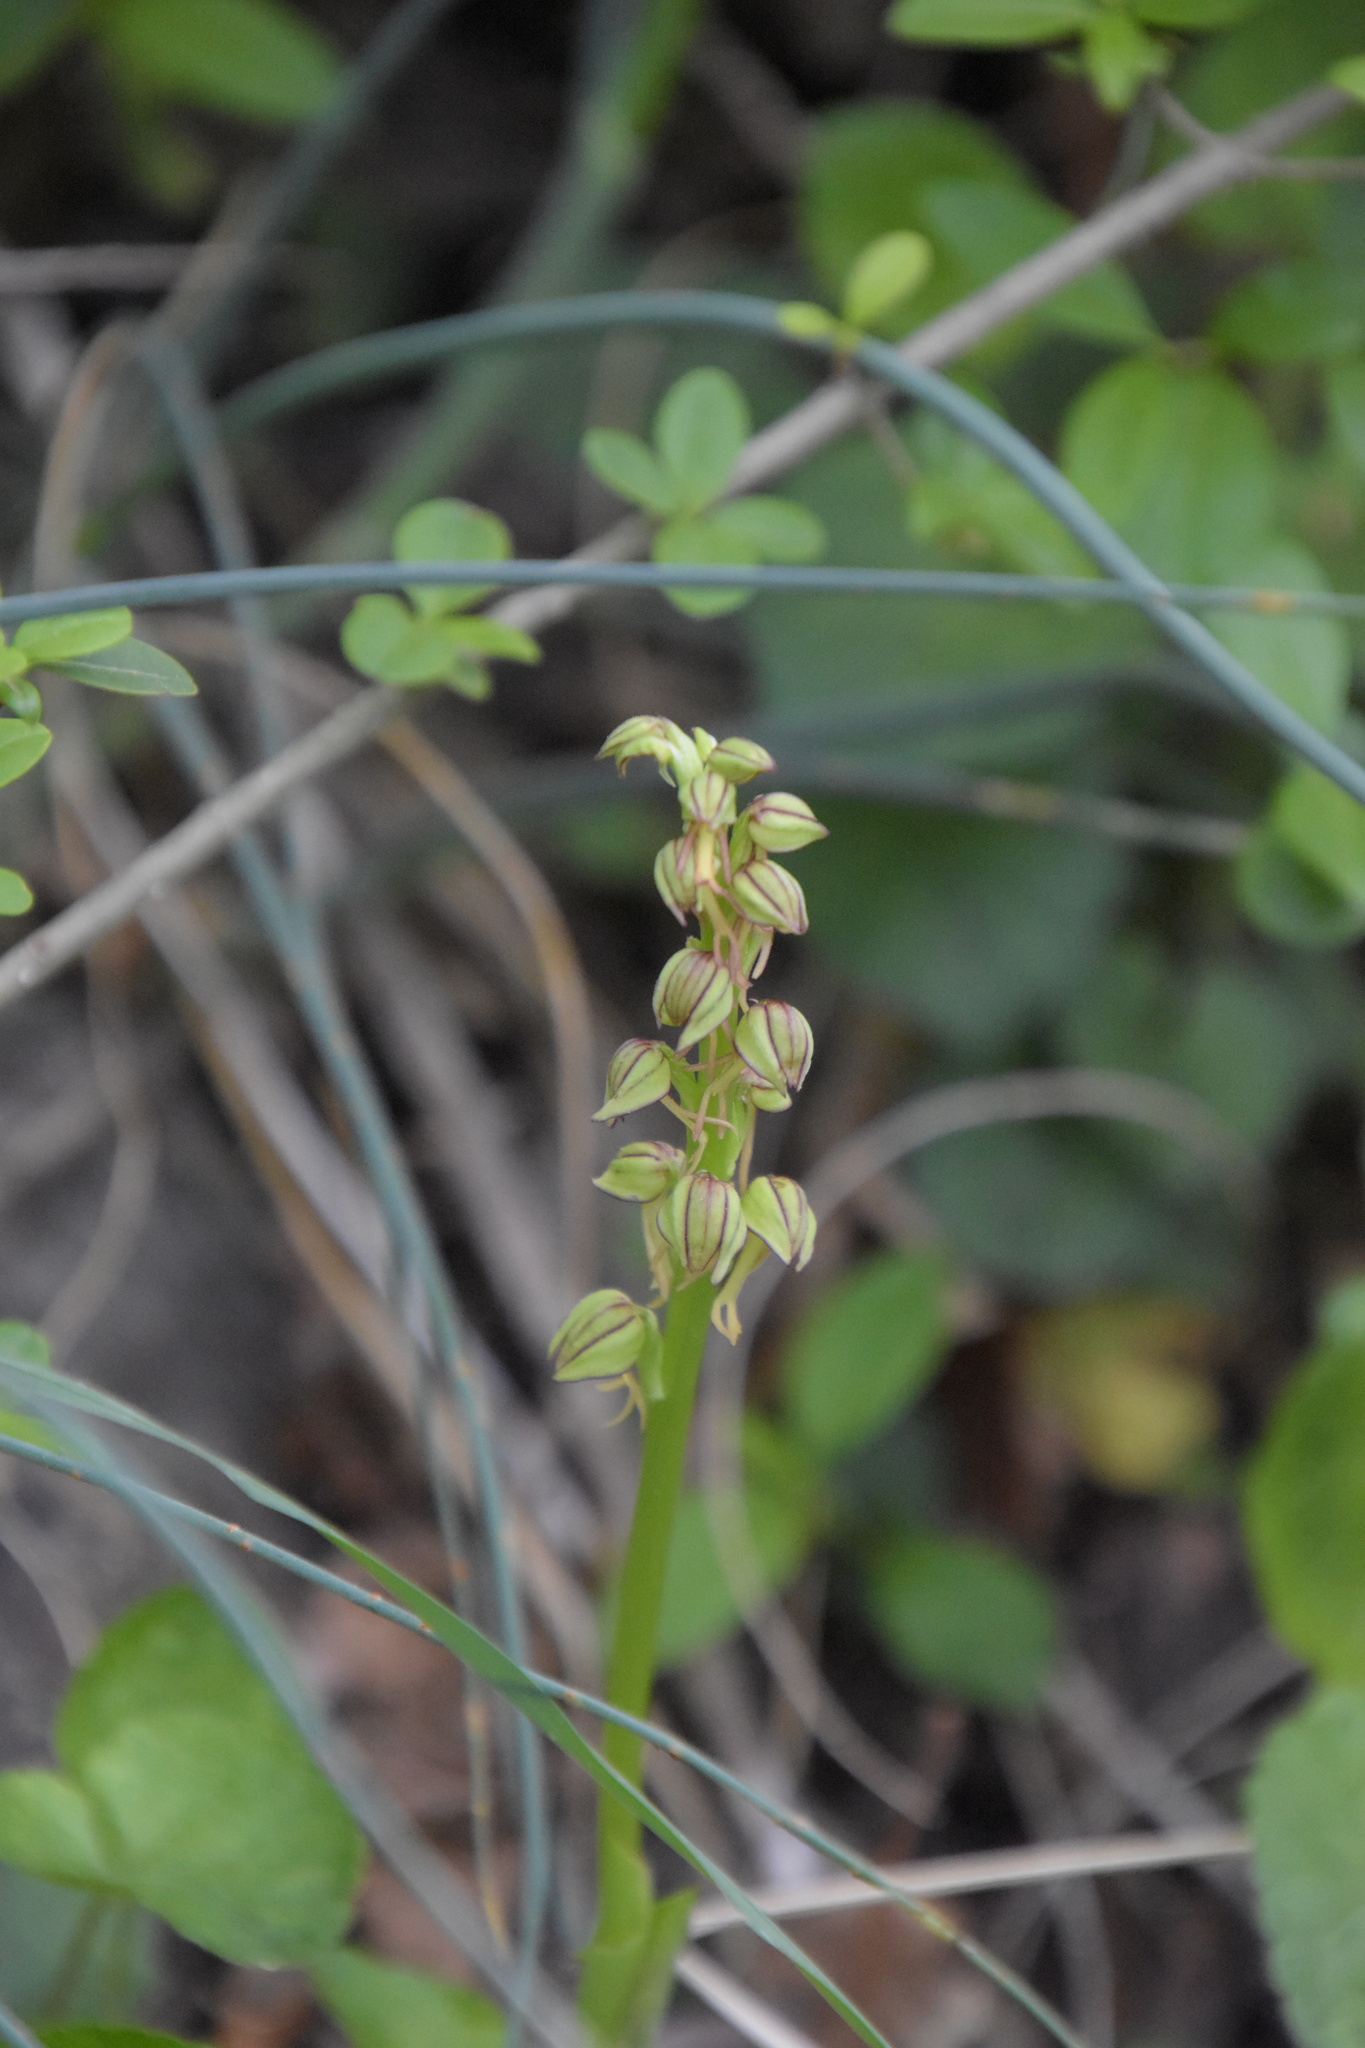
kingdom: Plantae
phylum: Tracheophyta
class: Liliopsida
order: Asparagales
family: Orchidaceae
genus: Orchis
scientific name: Orchis anthropophora
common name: Man orchid
